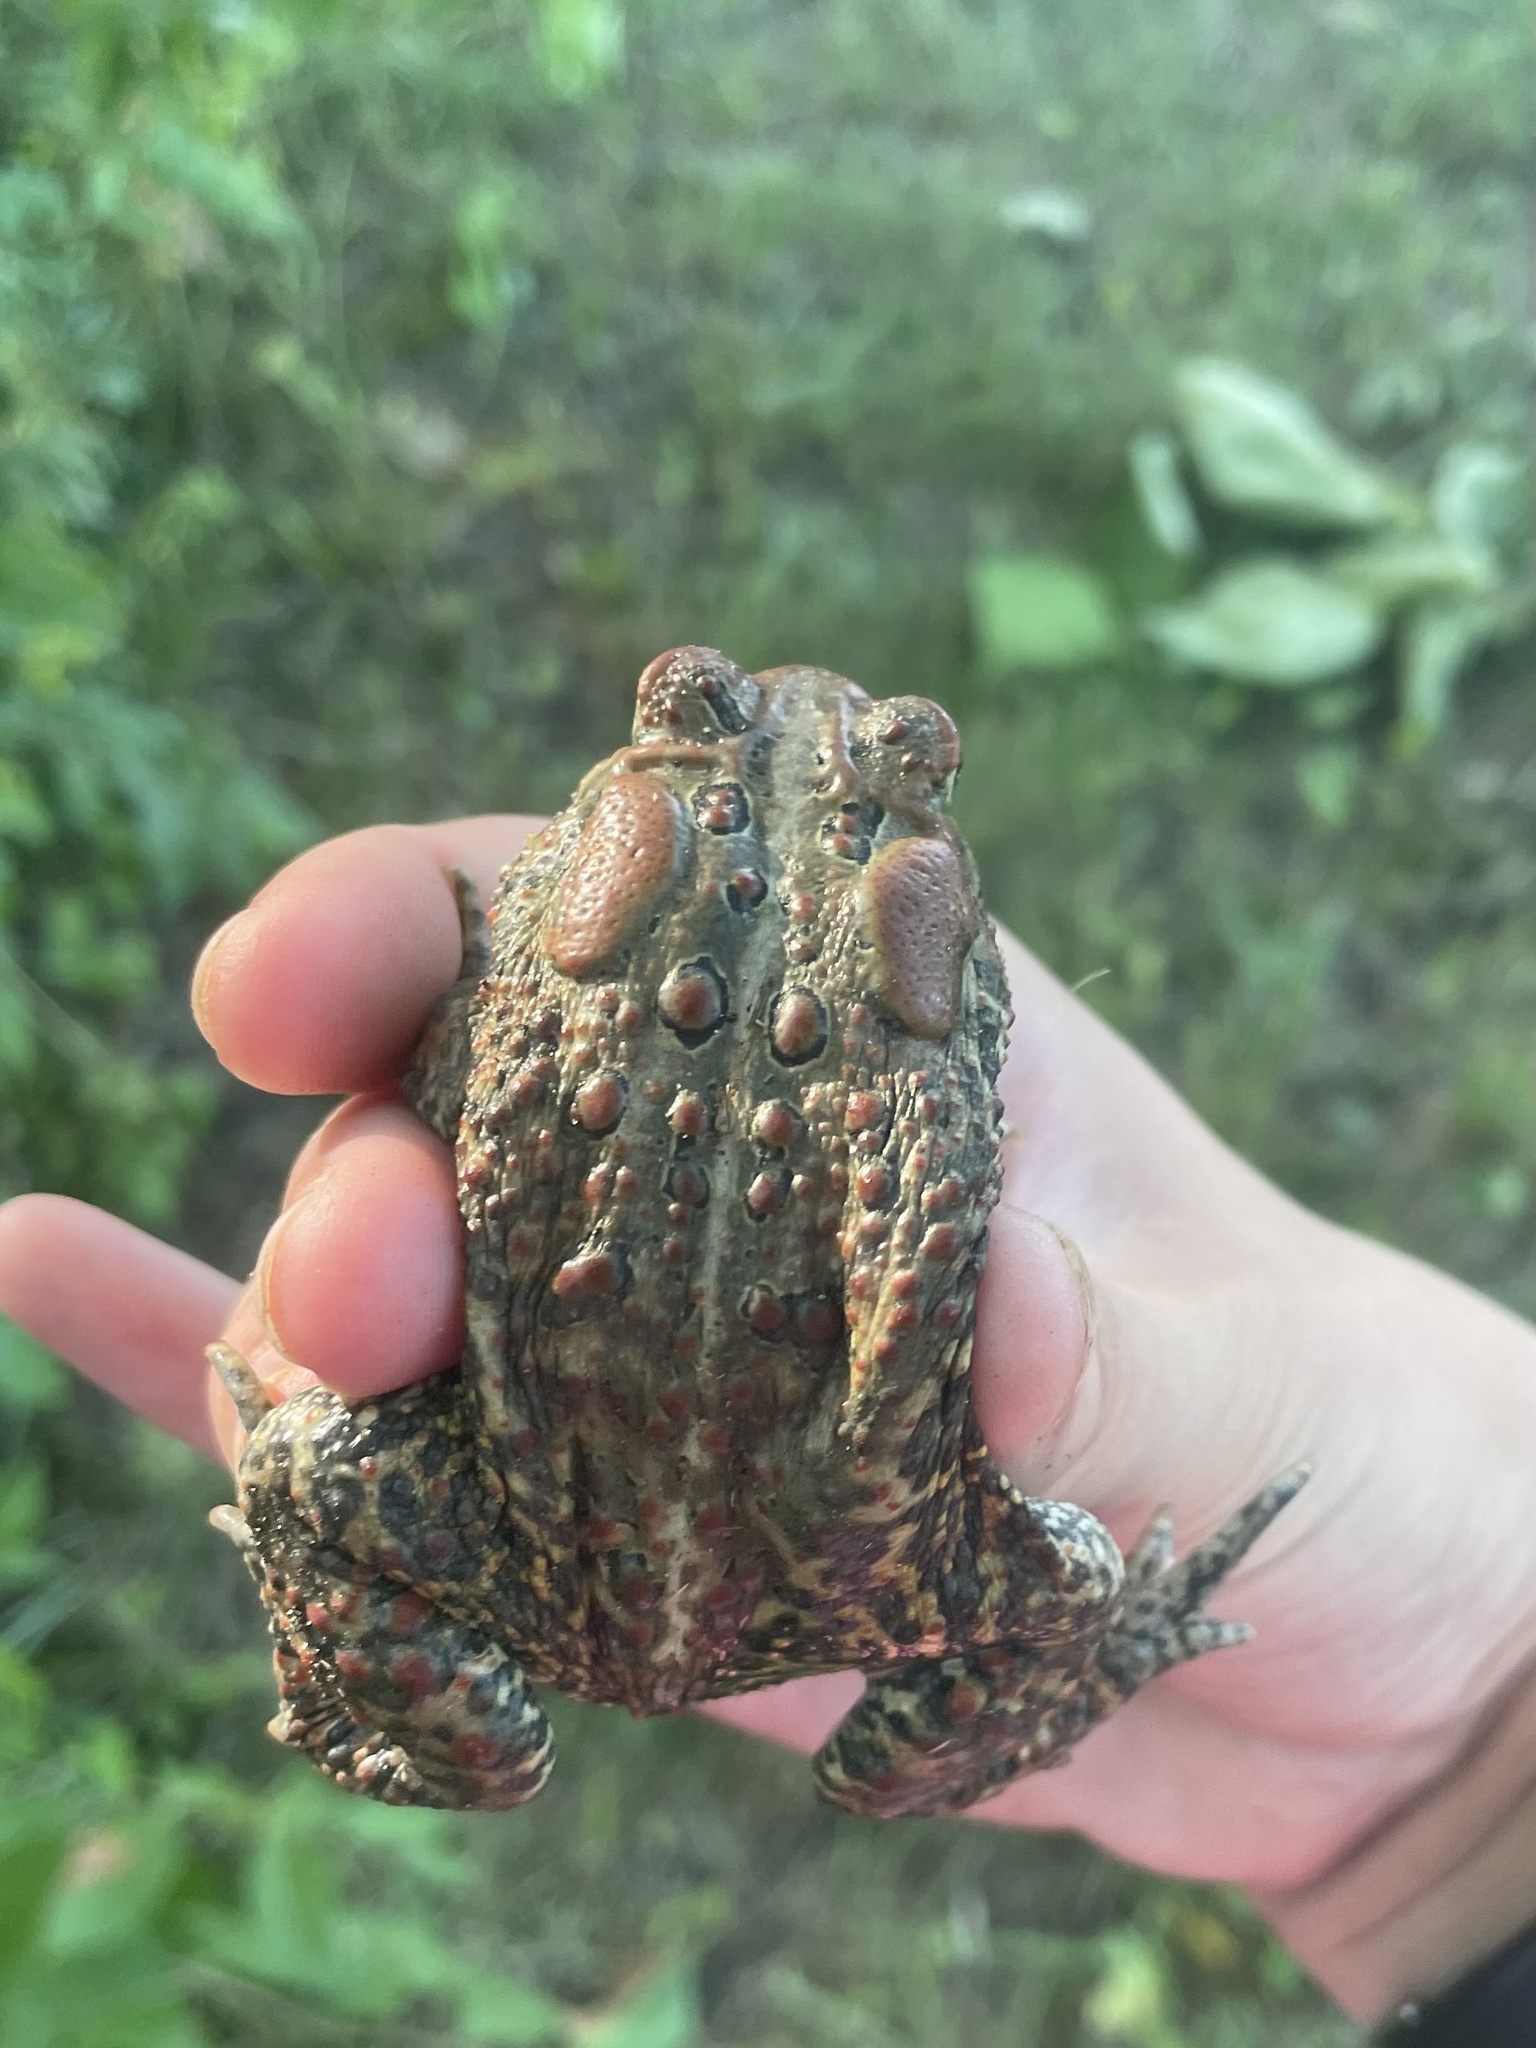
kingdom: Animalia
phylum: Chordata
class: Amphibia
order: Anura
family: Bufonidae
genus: Anaxyrus
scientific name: Anaxyrus americanus
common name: American toad
